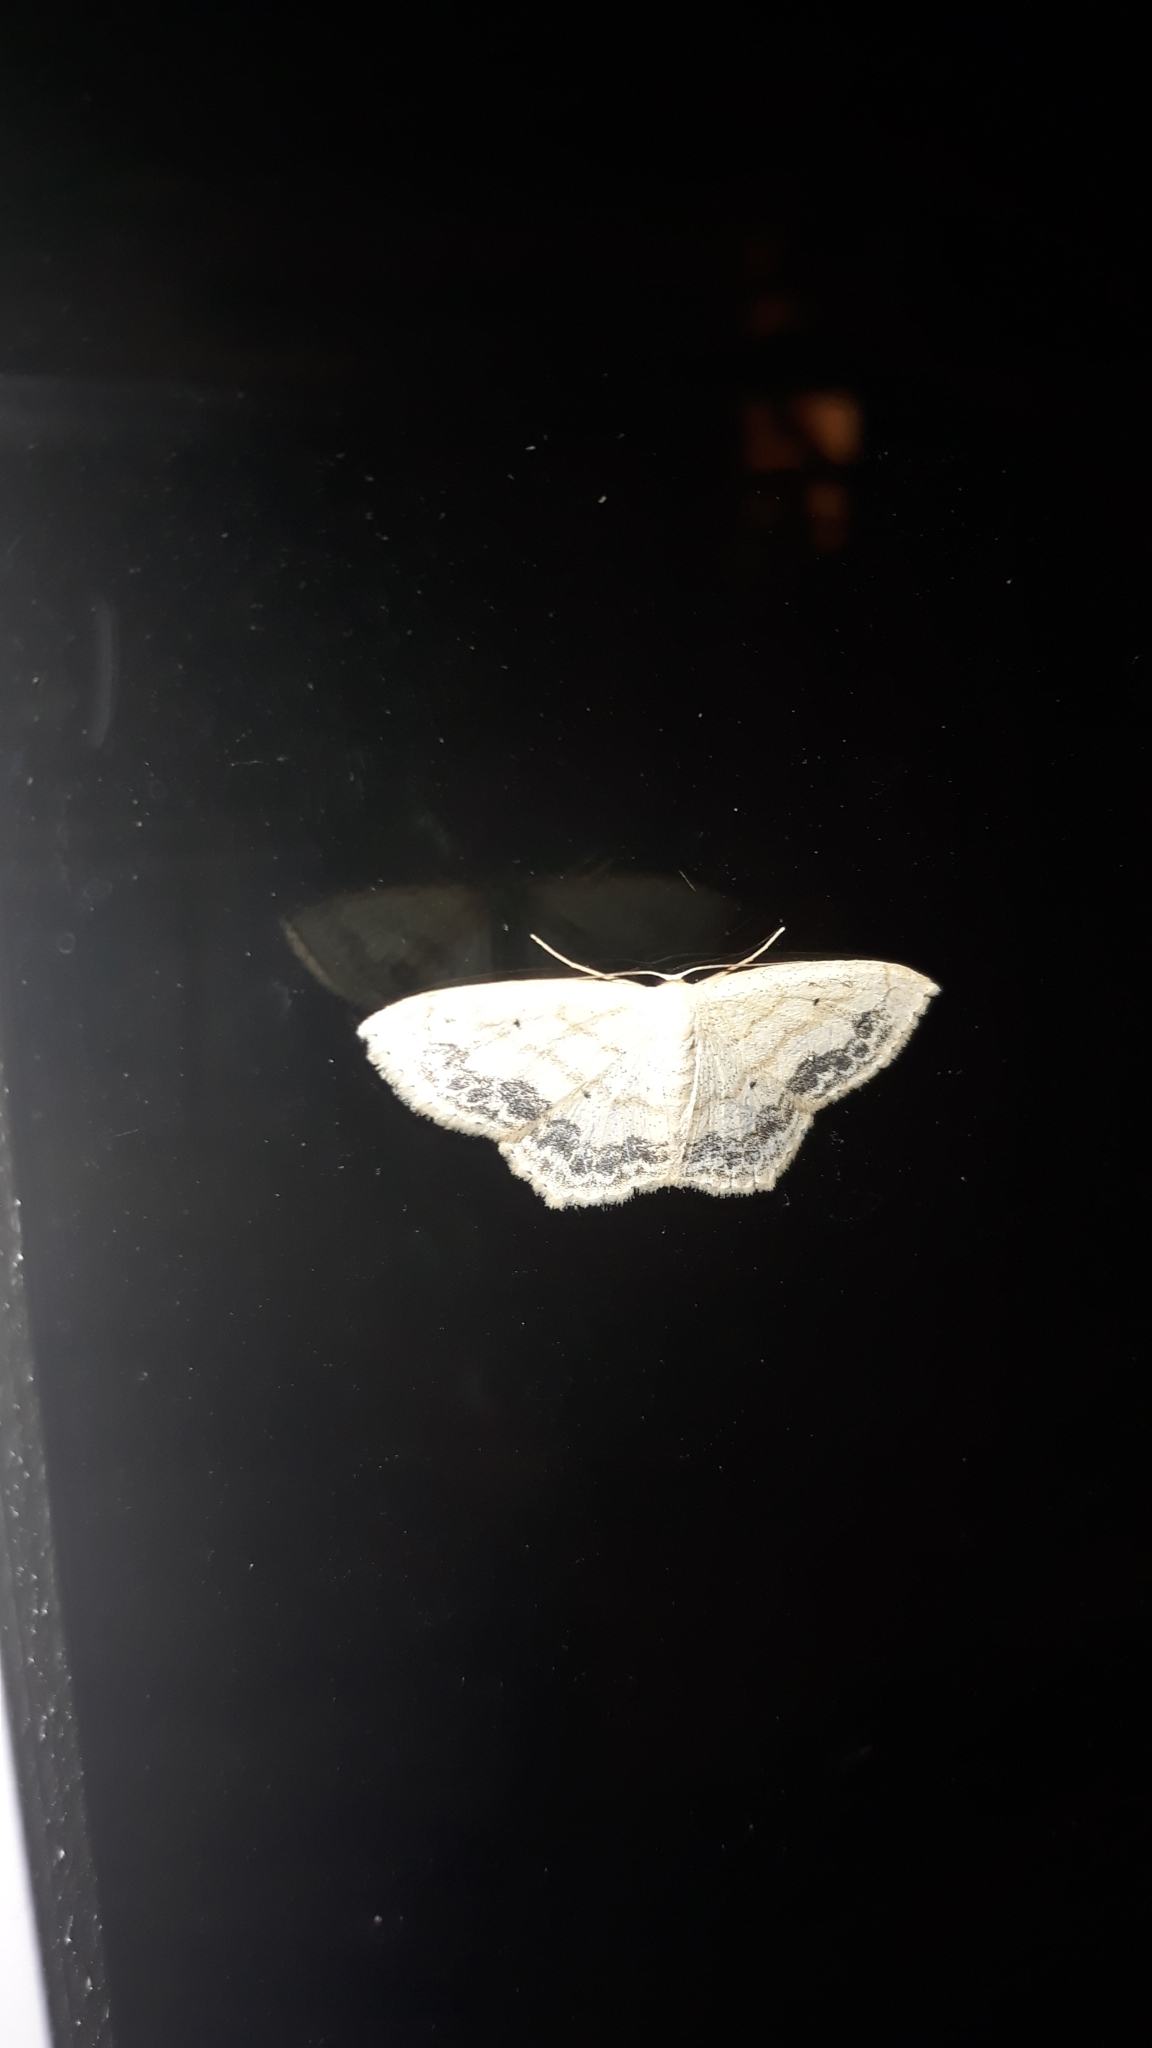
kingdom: Animalia
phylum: Arthropoda
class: Insecta
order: Lepidoptera
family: Geometridae
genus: Scopula
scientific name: Scopula limboundata
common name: Large lace border
